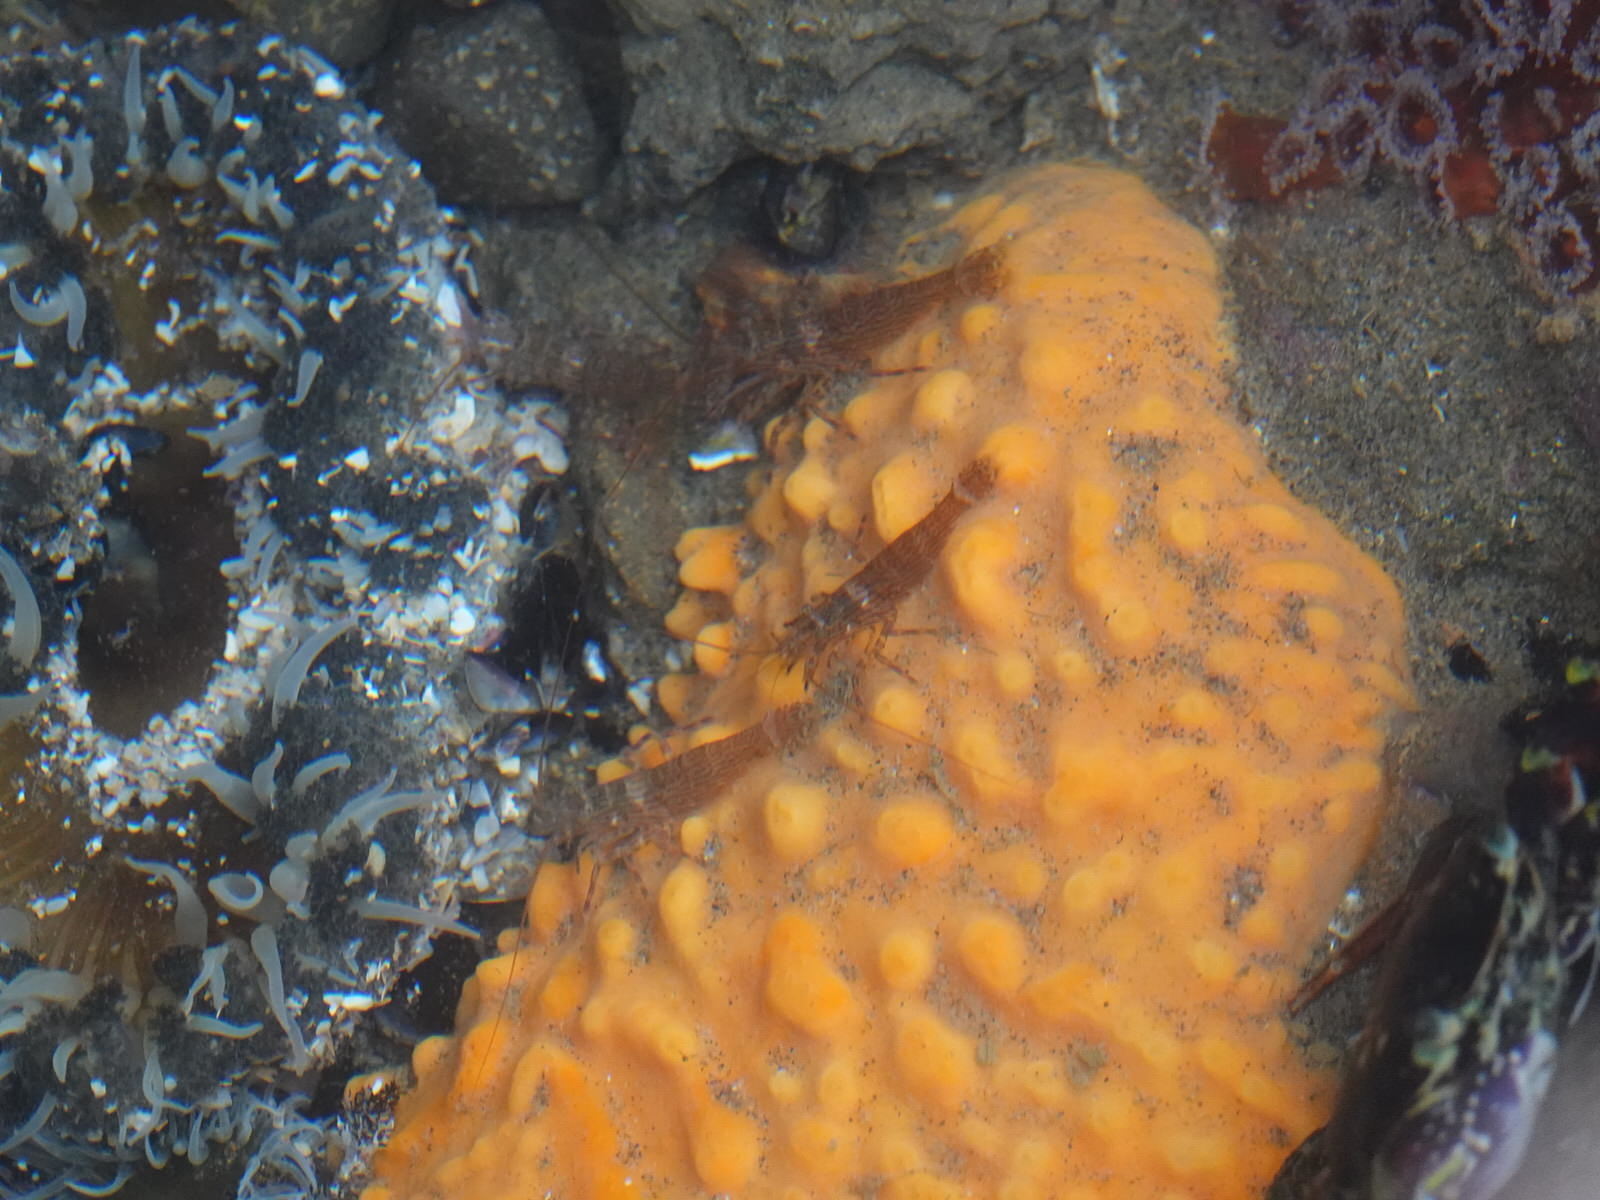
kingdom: Animalia
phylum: Arthropoda
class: Malacostraca
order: Decapoda
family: Hippolytidae
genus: Alope
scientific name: Alope spinifrons
